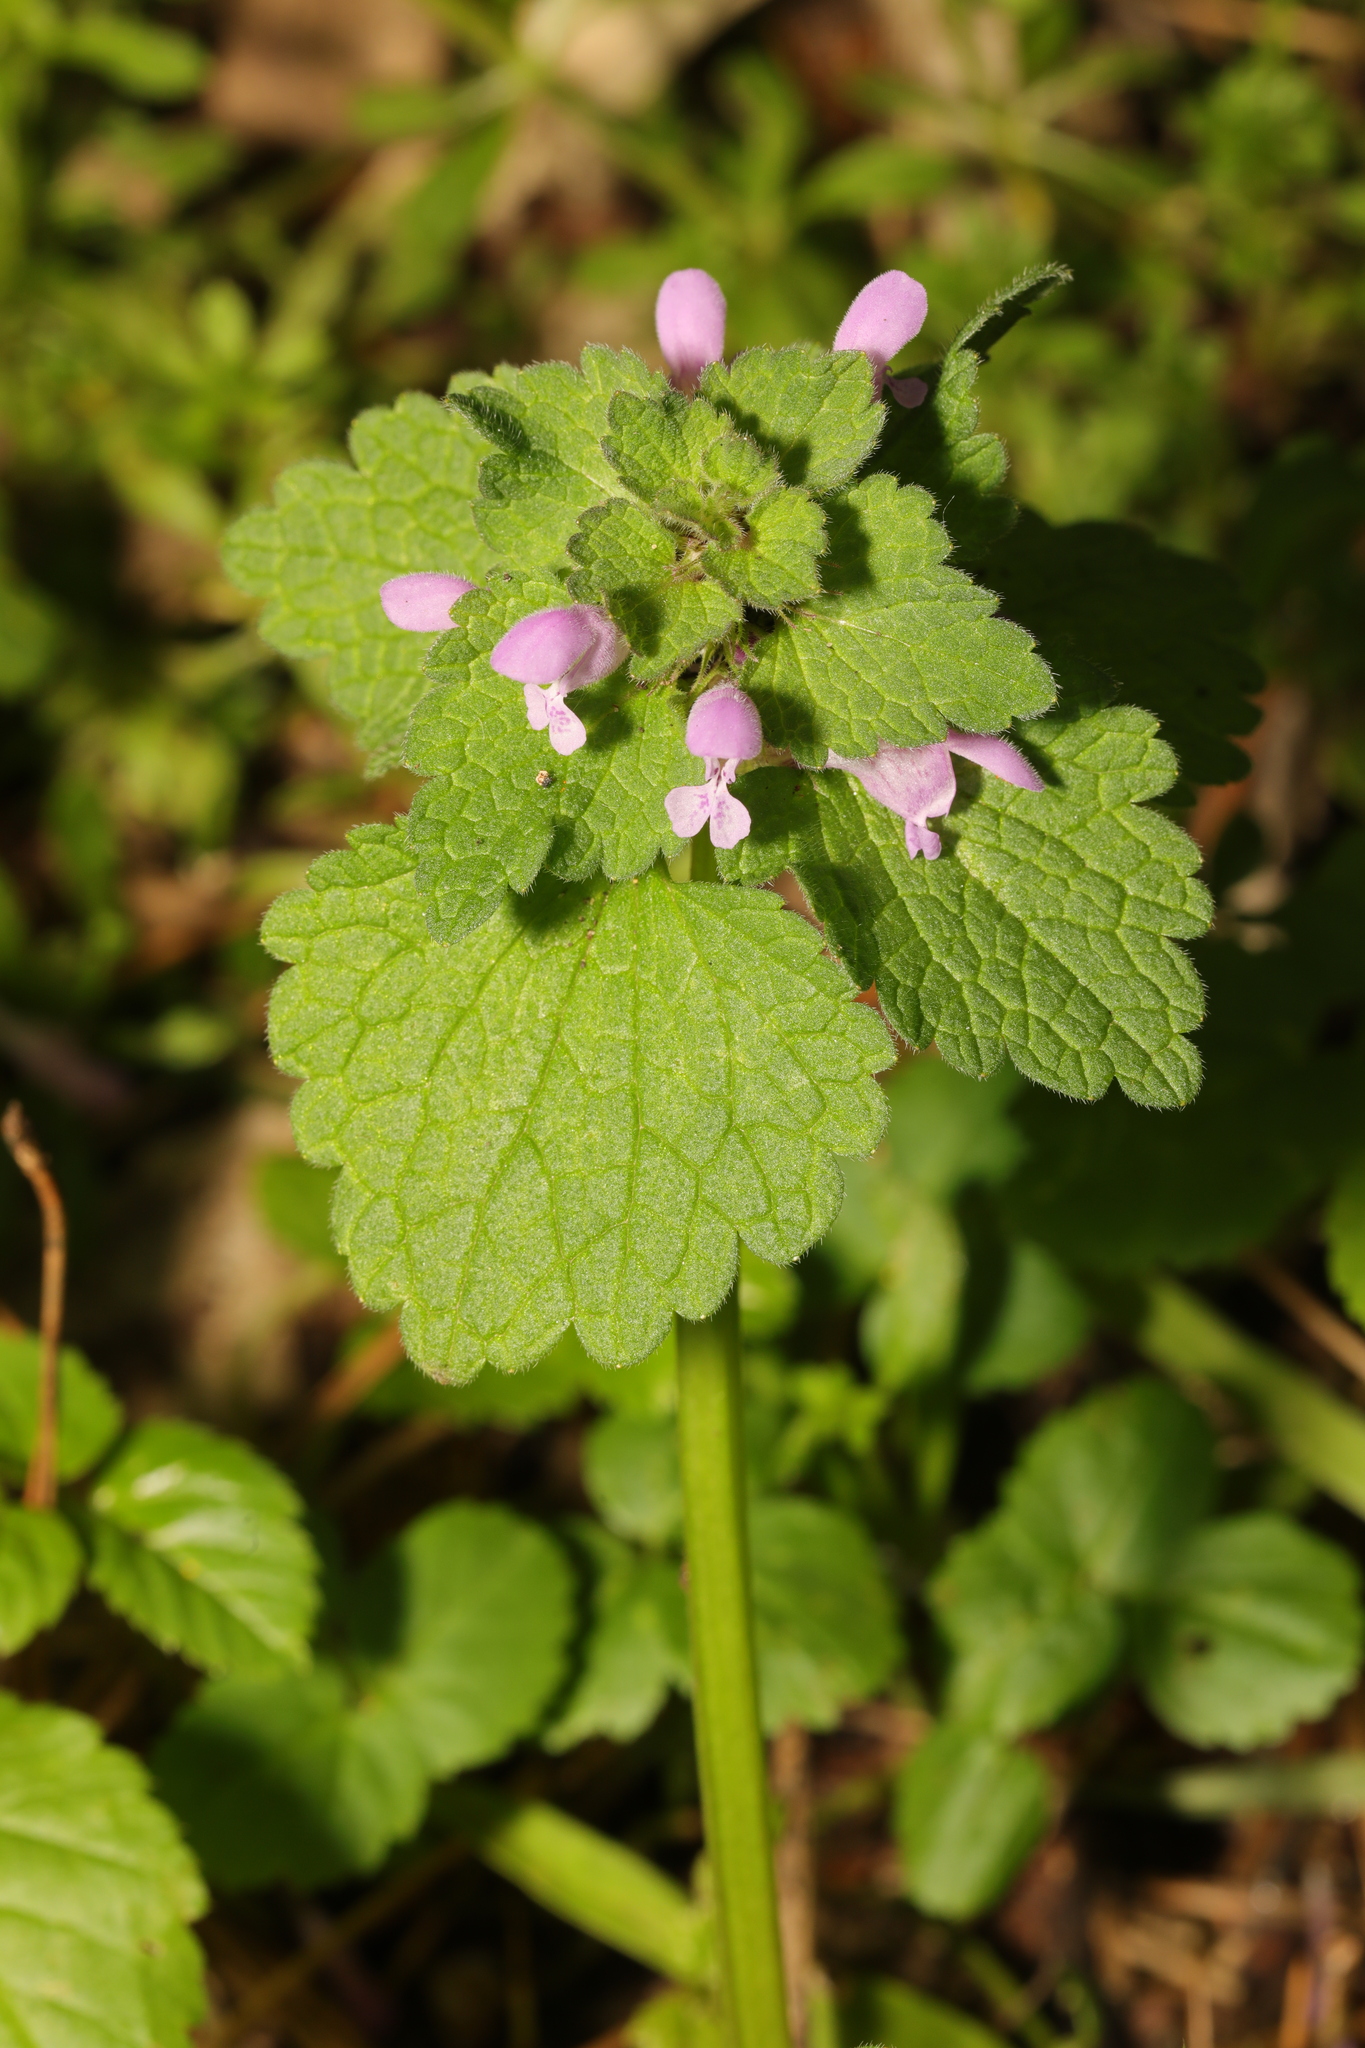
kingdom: Plantae
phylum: Tracheophyta
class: Magnoliopsida
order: Lamiales
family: Lamiaceae
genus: Lamium
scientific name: Lamium purpureum
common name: Red dead-nettle
